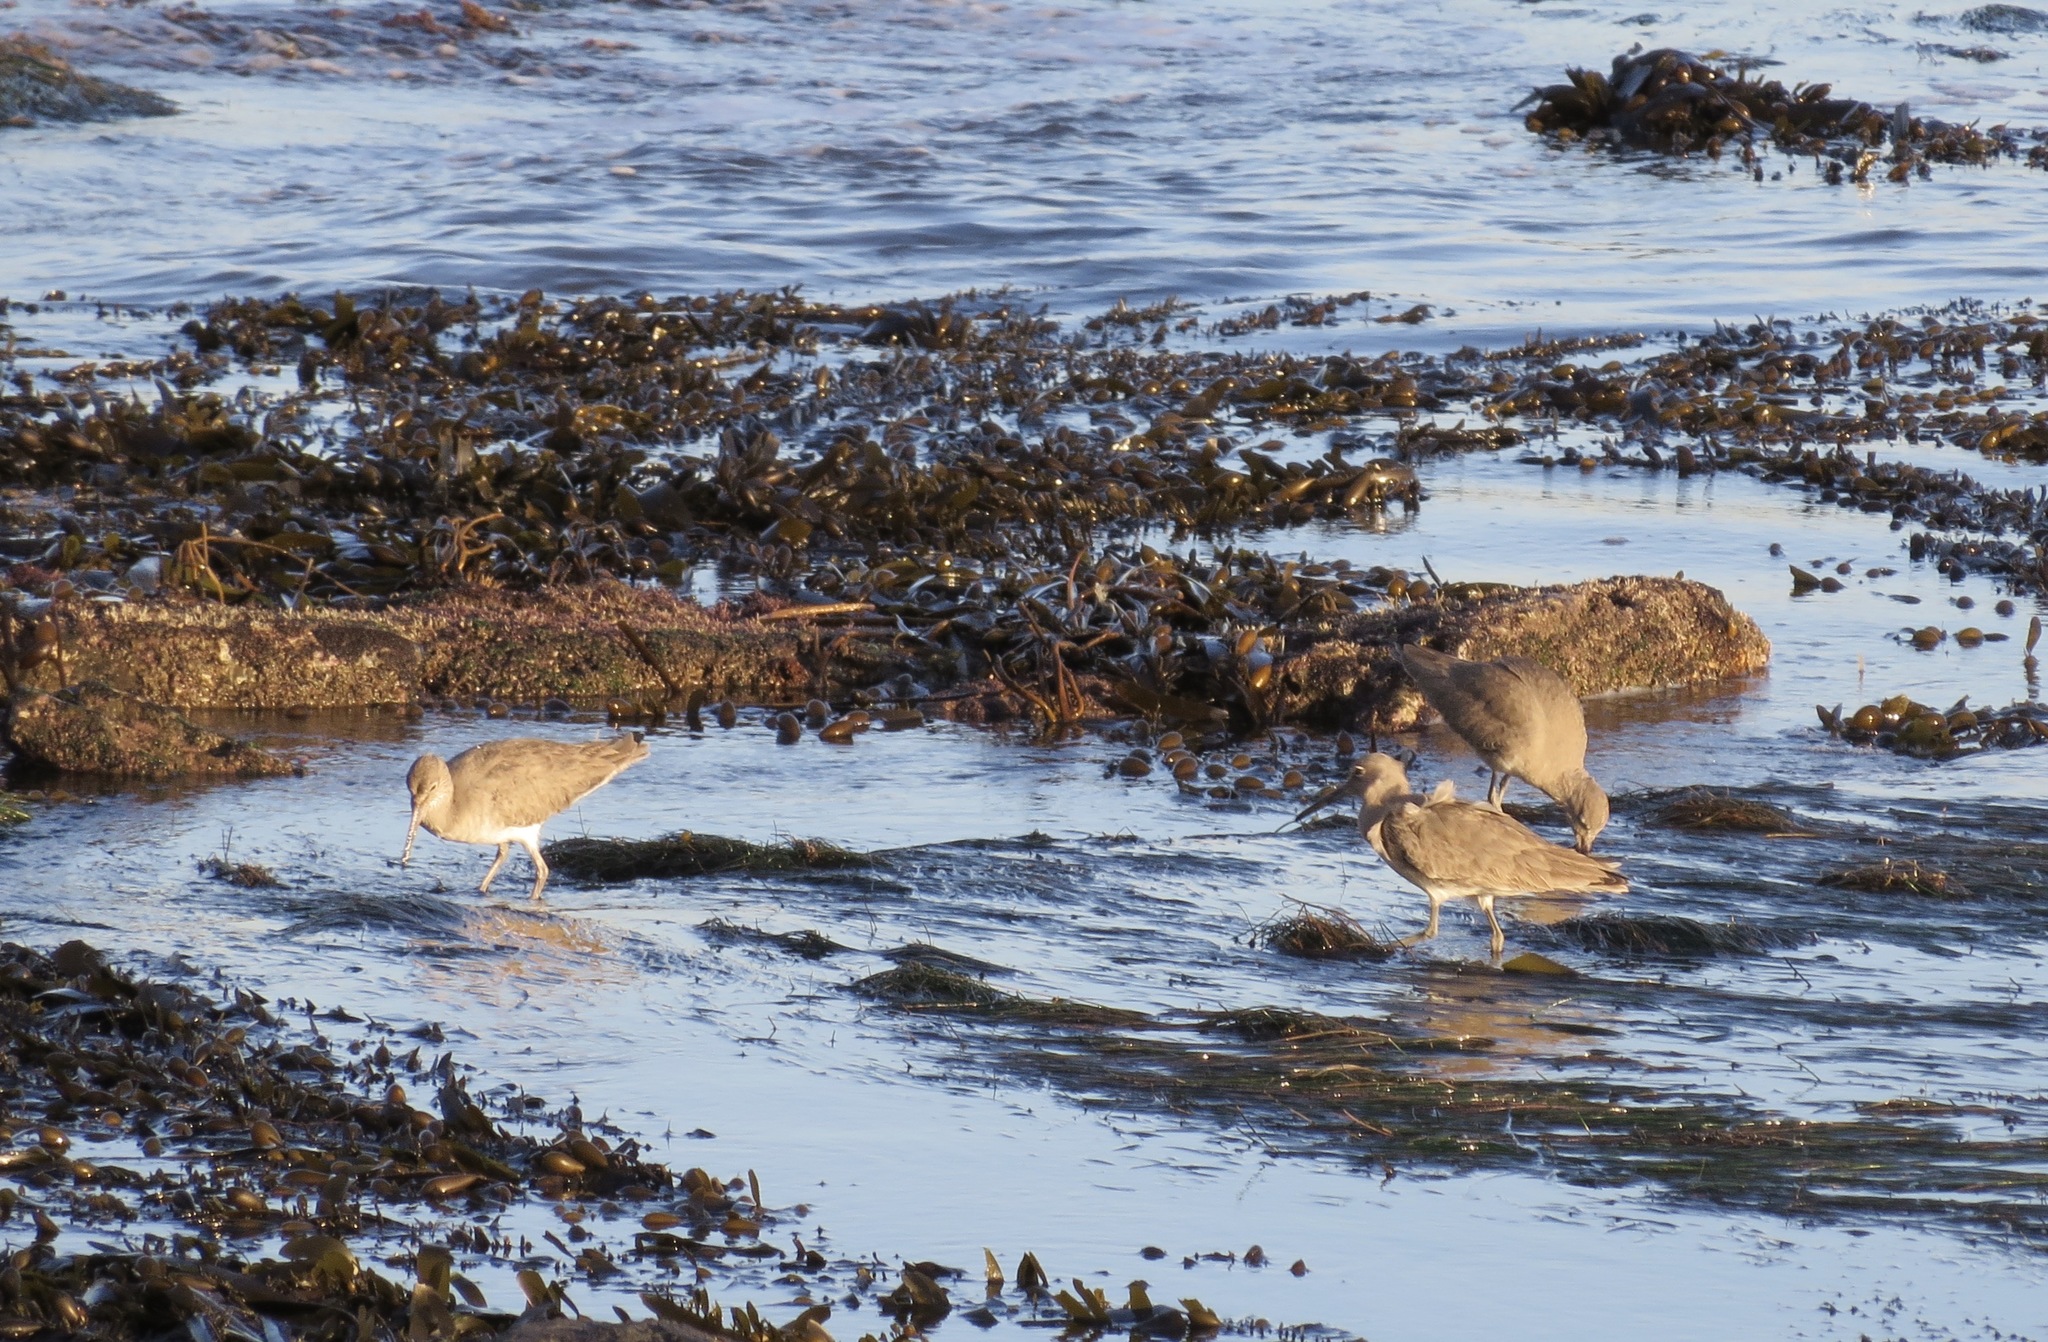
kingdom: Animalia
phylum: Chordata
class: Aves
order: Charadriiformes
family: Scolopacidae
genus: Tringa
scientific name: Tringa semipalmata
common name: Willet
